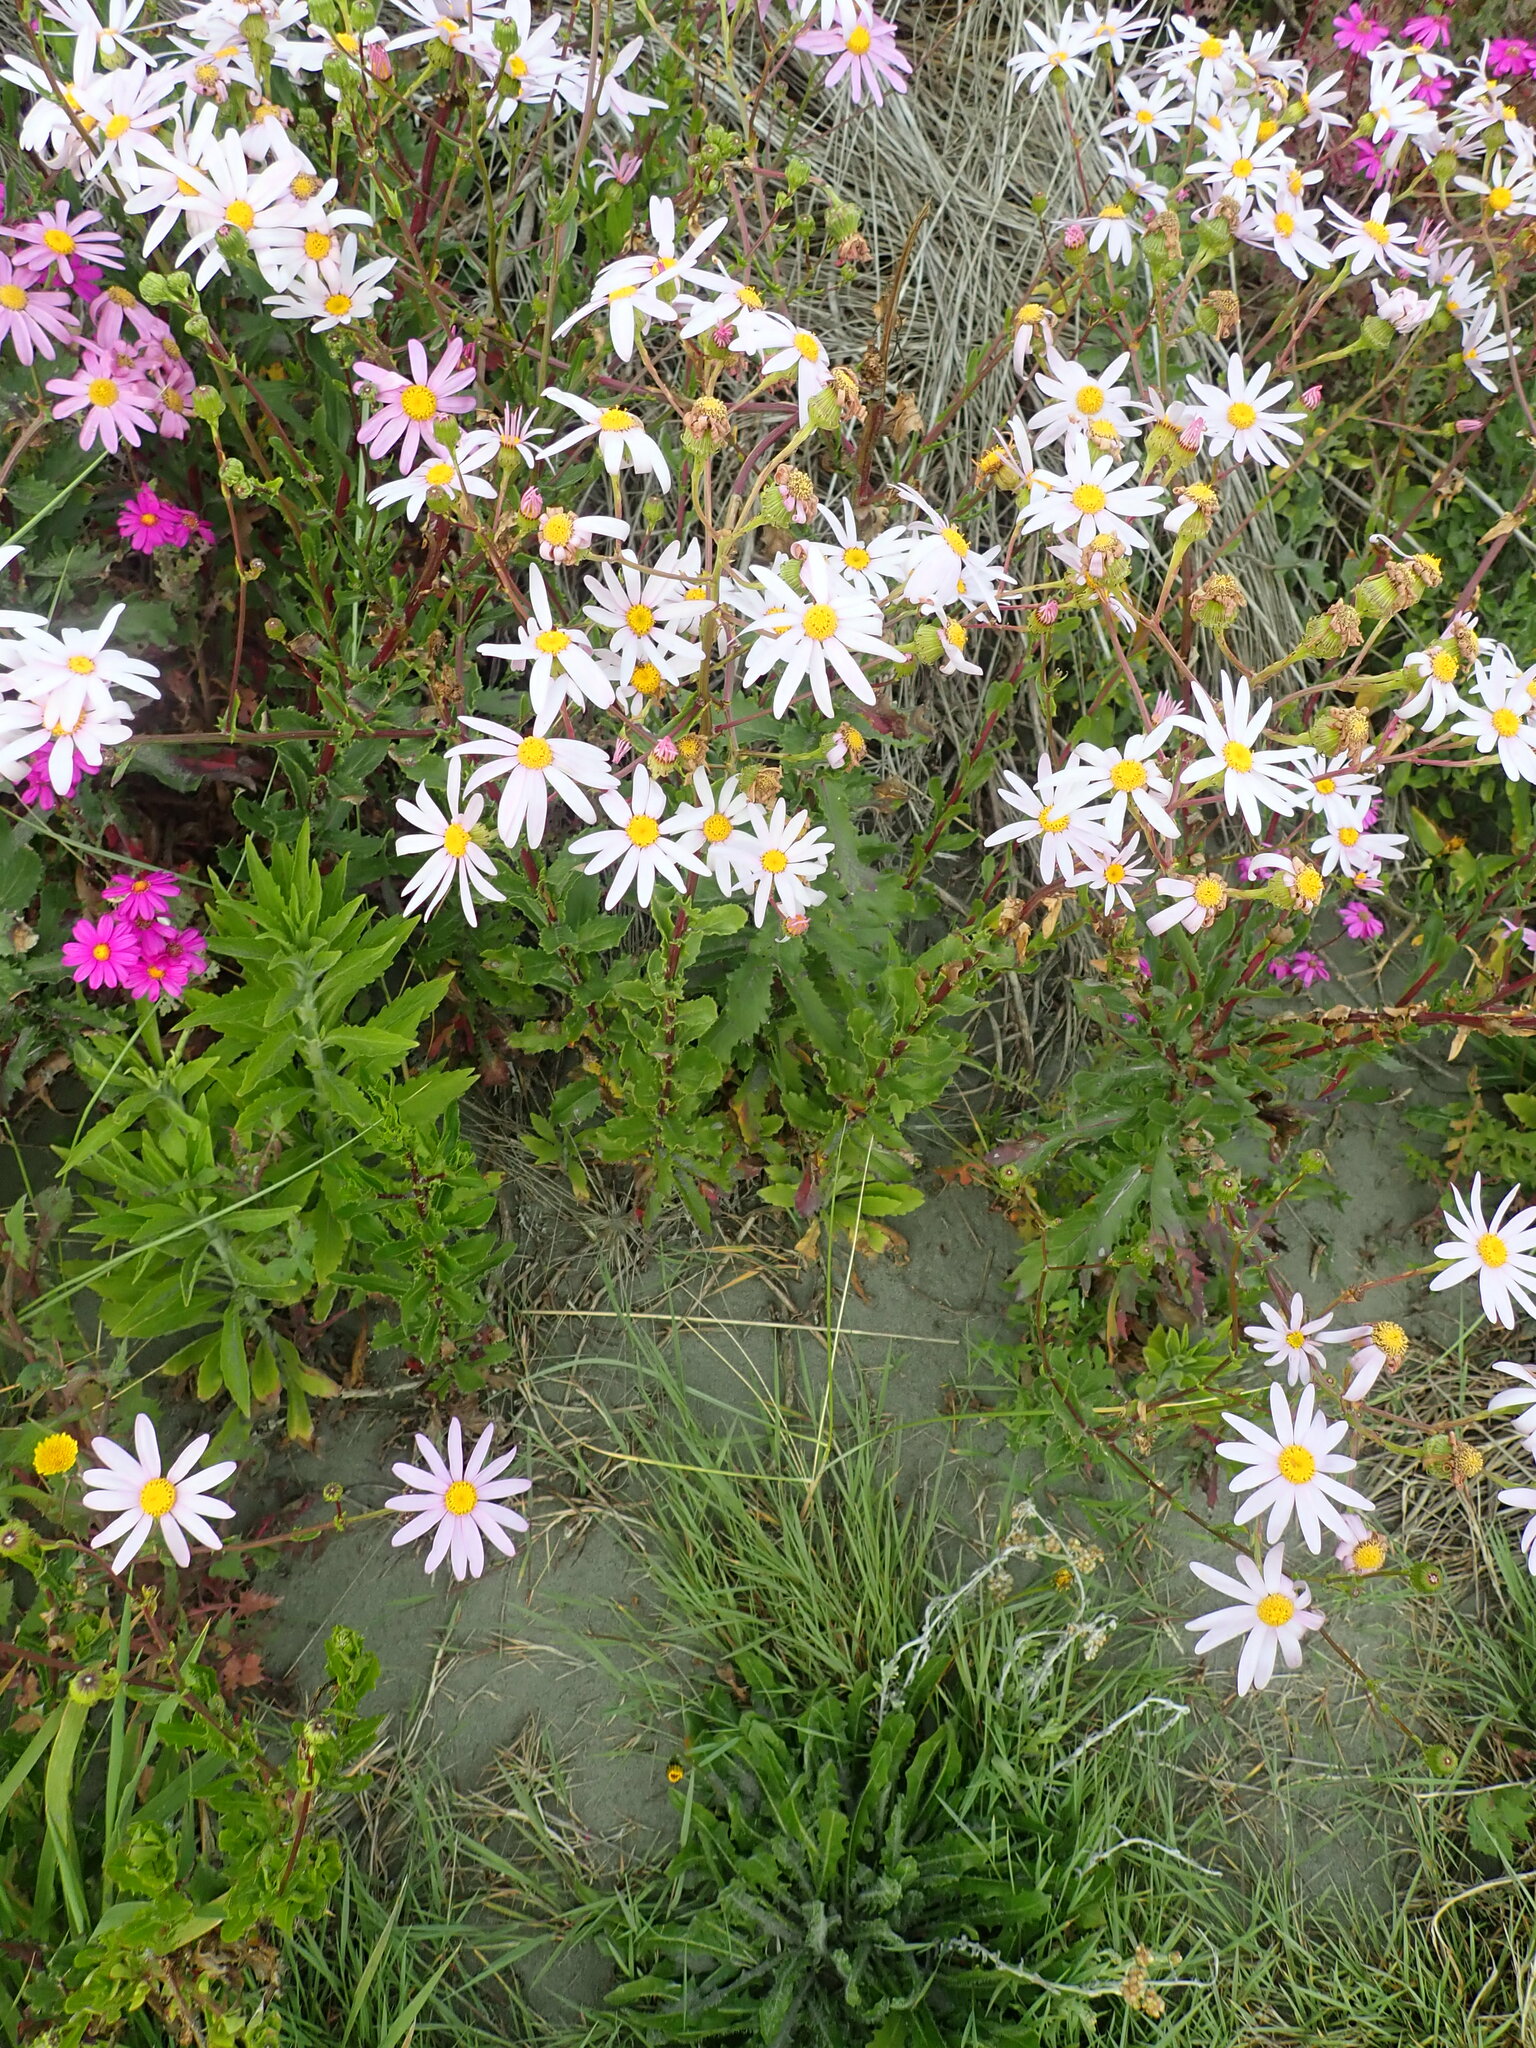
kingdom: Plantae
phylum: Tracheophyta
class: Magnoliopsida
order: Asterales
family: Asteraceae
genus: Senecio
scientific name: Senecio glastifolius
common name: Woad-leaved ragwort
